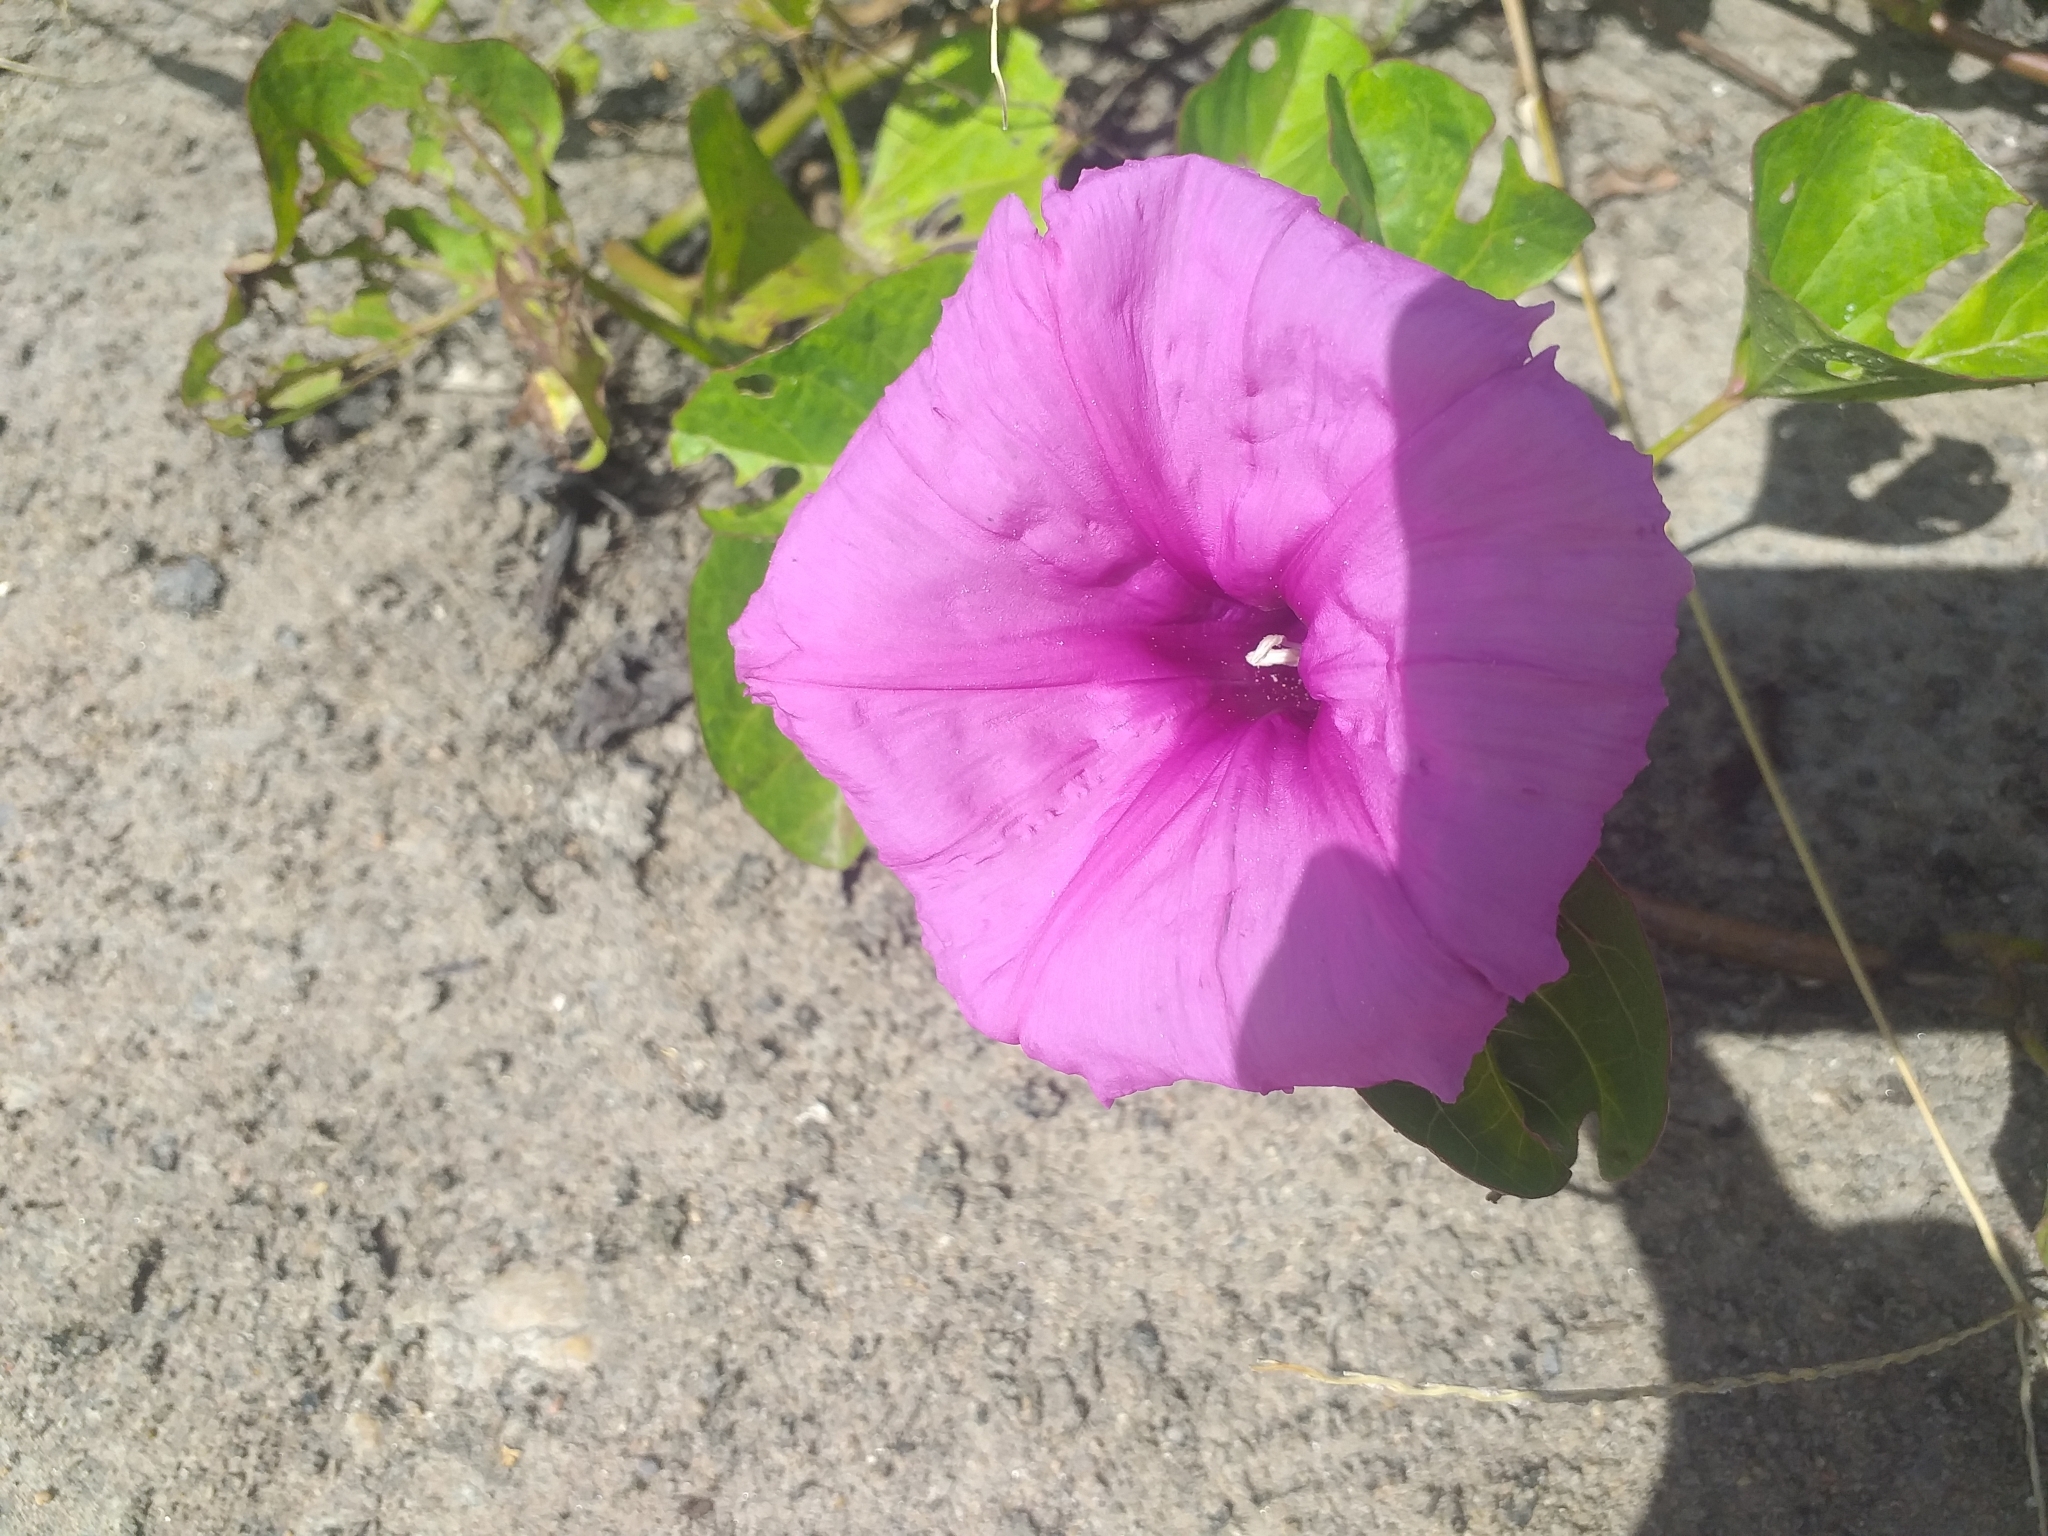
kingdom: Plantae
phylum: Tracheophyta
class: Magnoliopsida
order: Solanales
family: Convolvulaceae
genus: Ipomoea
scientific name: Ipomoea asarifolia
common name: Ginger-leaf morning-glory
